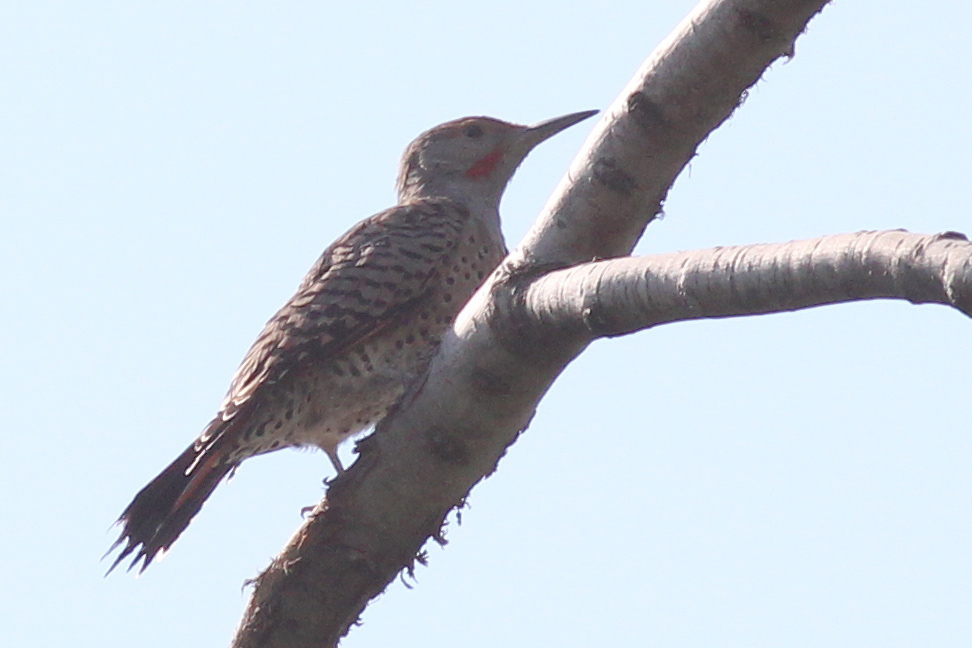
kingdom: Animalia
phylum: Chordata
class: Aves
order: Piciformes
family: Picidae
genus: Colaptes
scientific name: Colaptes auratus
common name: Northern flicker
